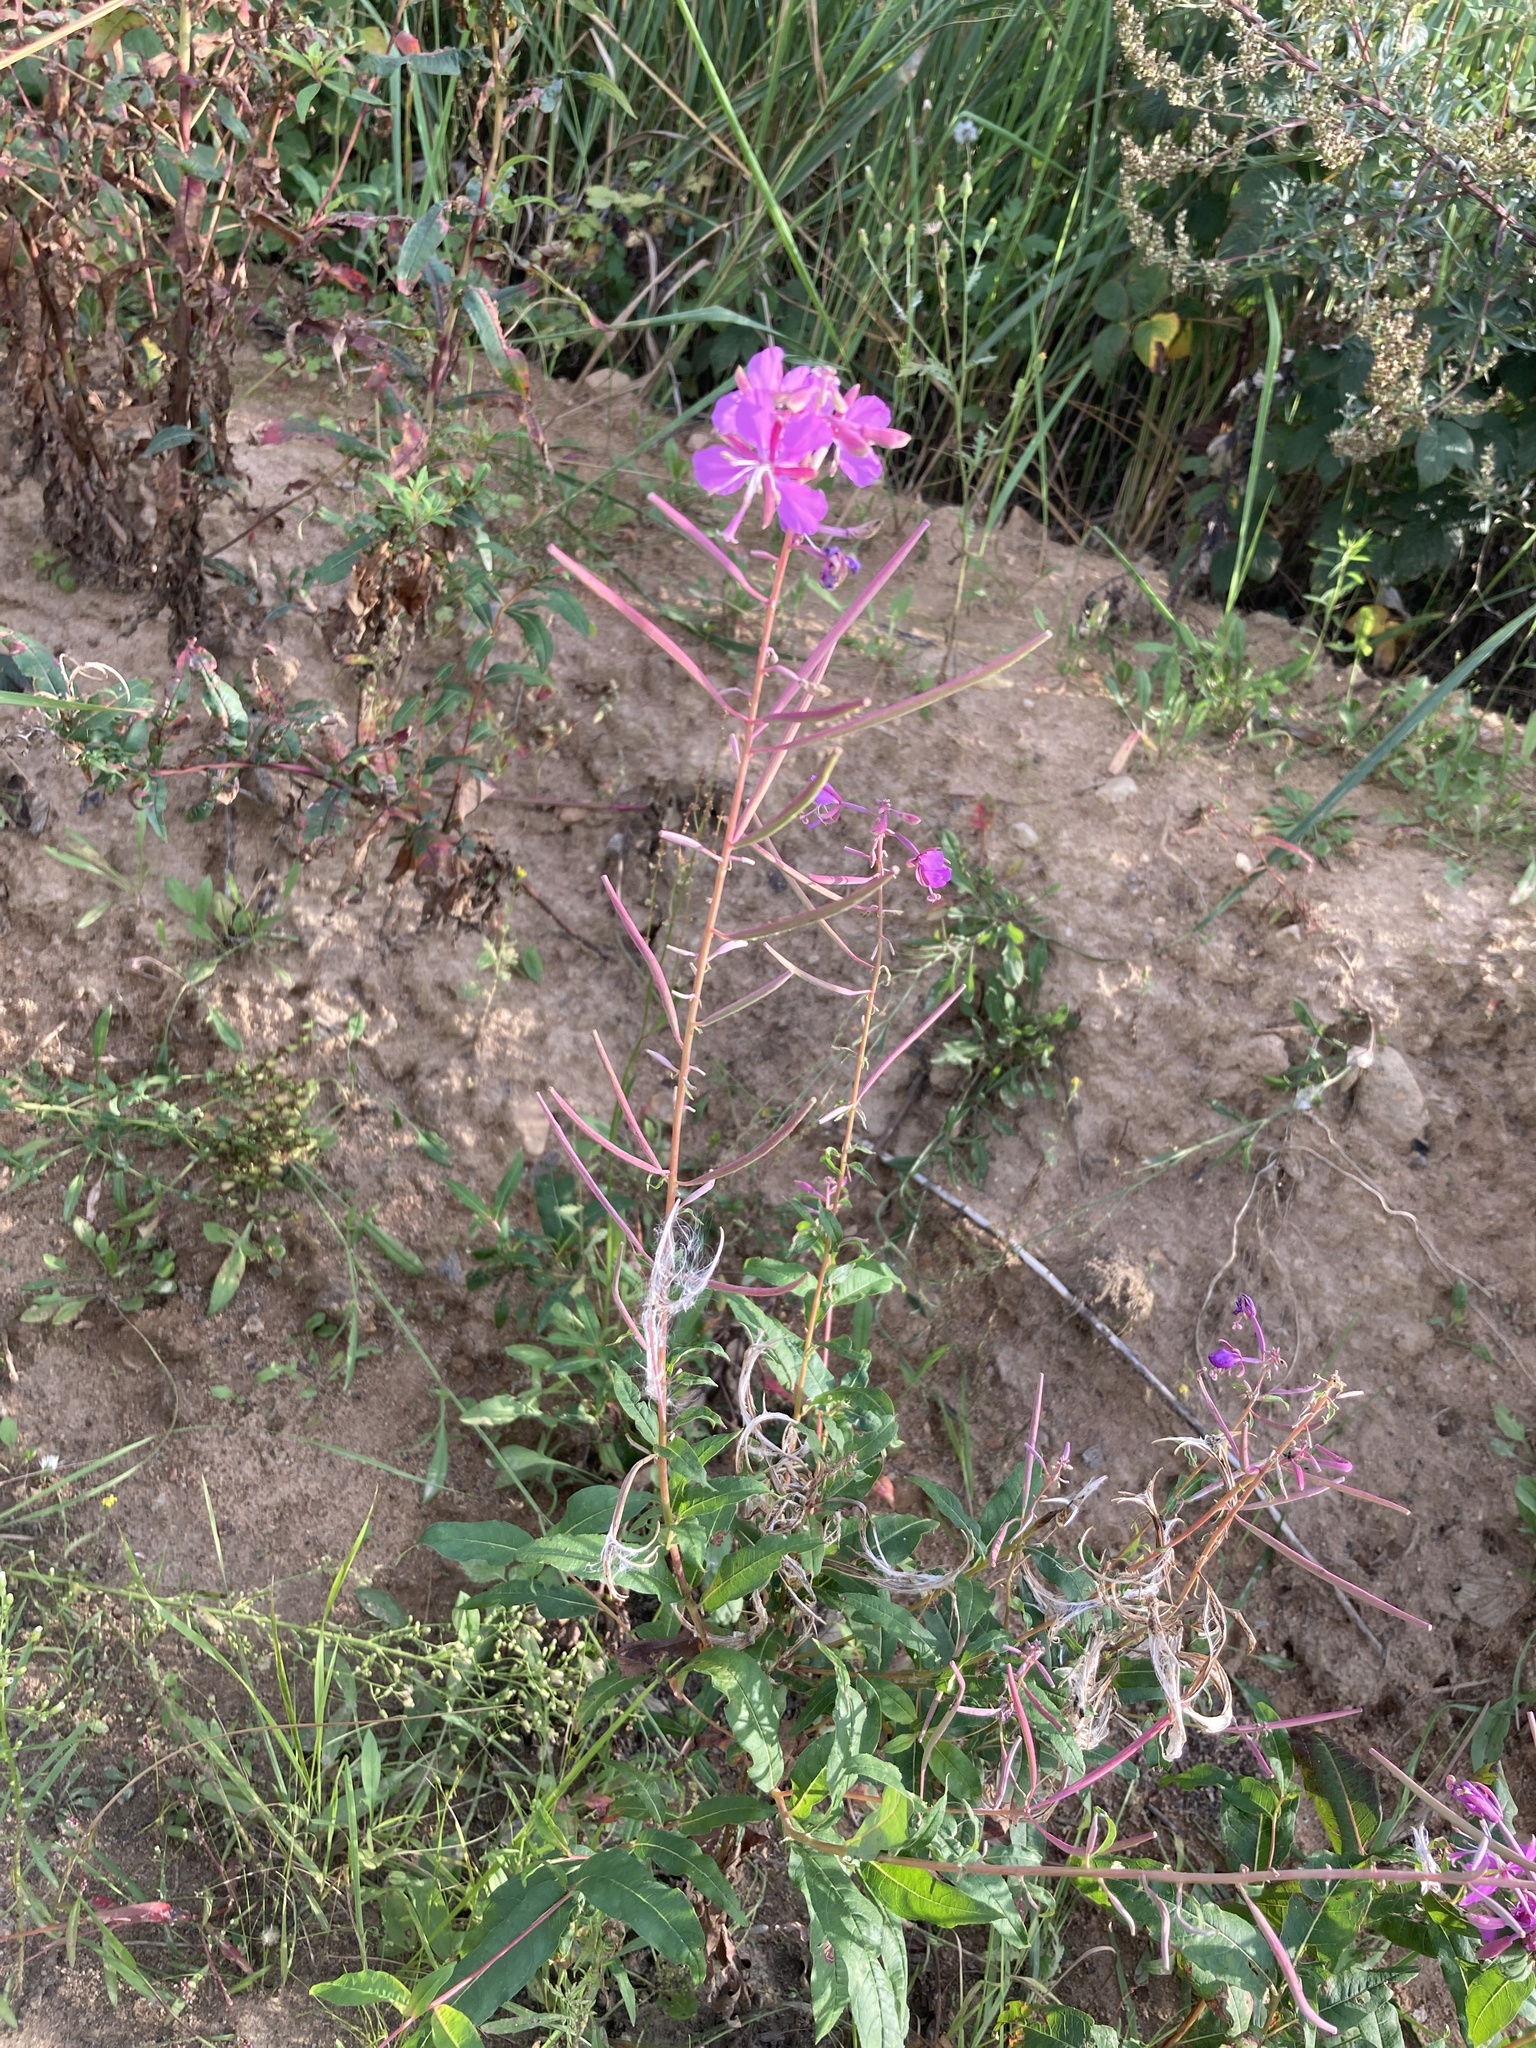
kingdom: Plantae
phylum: Tracheophyta
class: Magnoliopsida
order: Myrtales
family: Onagraceae
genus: Chamaenerion
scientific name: Chamaenerion angustifolium
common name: Fireweed
